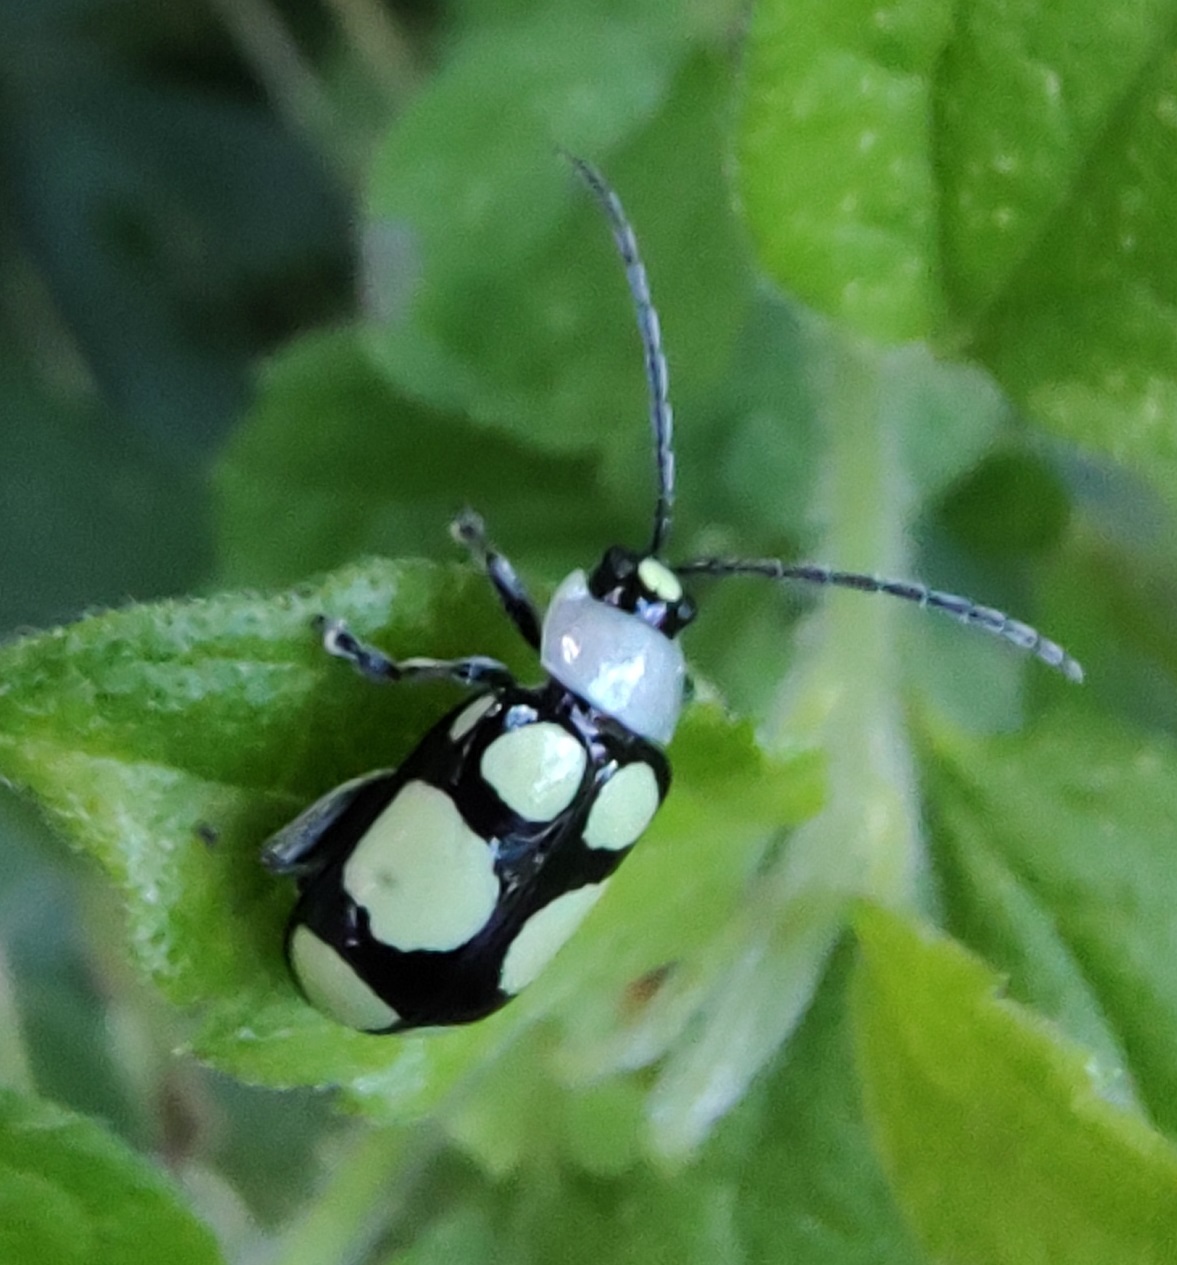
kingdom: Animalia
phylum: Arthropoda
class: Insecta
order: Coleoptera
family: Chrysomelidae
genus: Omophoita
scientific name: Omophoita
